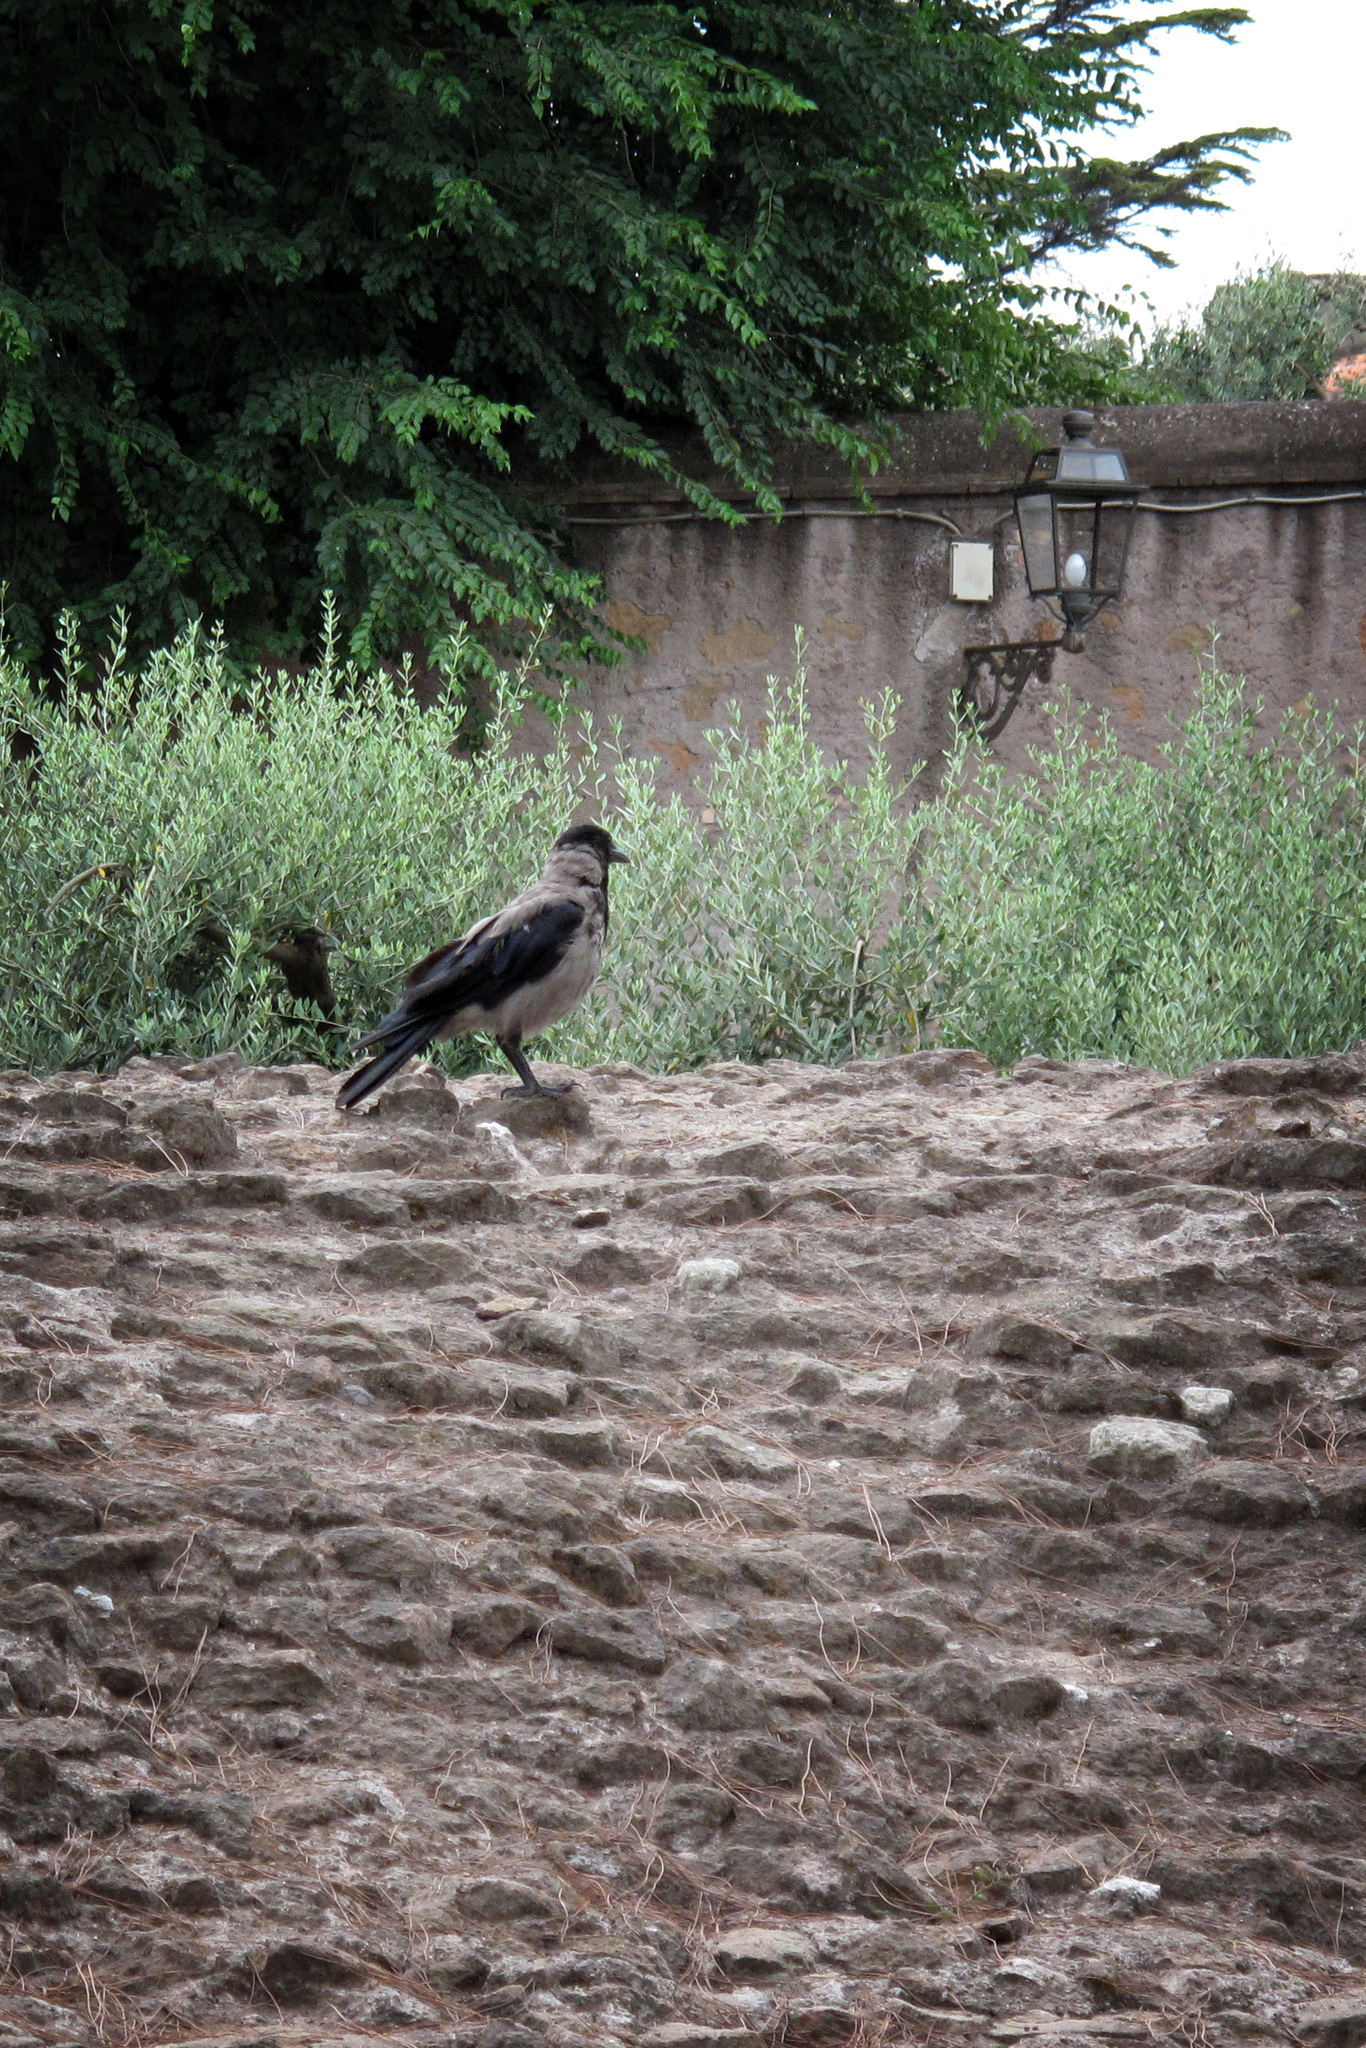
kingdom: Animalia
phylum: Chordata
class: Aves
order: Passeriformes
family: Corvidae
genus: Corvus
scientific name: Corvus cornix
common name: Hooded crow
